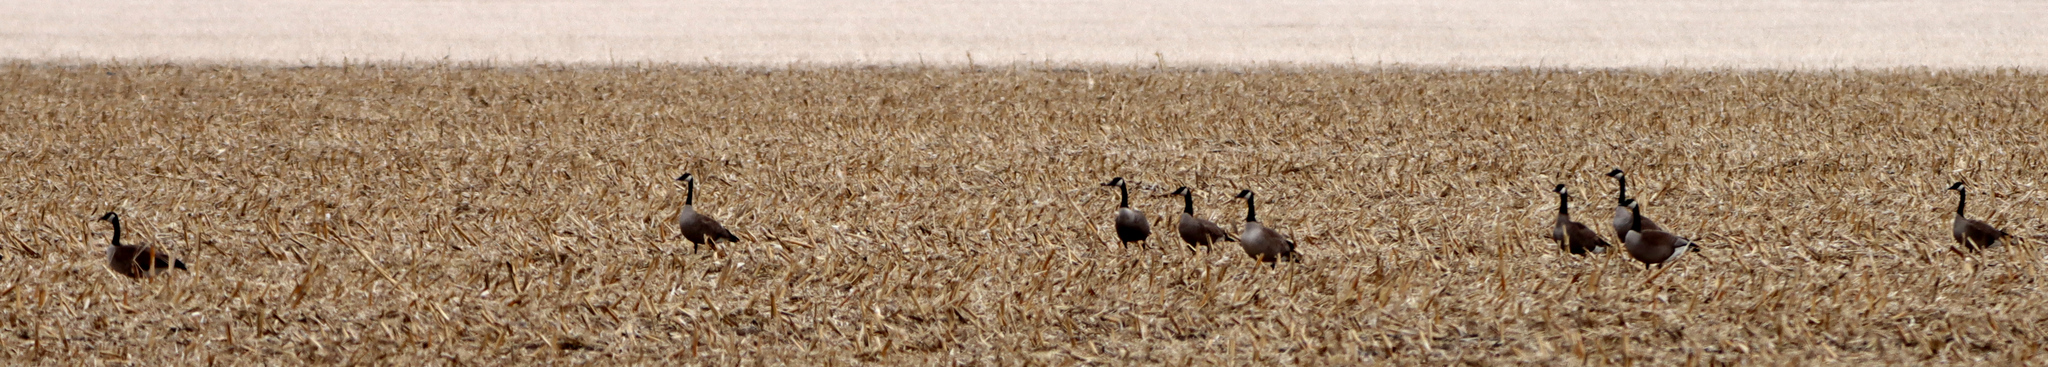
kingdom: Animalia
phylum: Chordata
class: Aves
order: Anseriformes
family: Anatidae
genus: Branta
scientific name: Branta canadensis
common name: Canada goose
